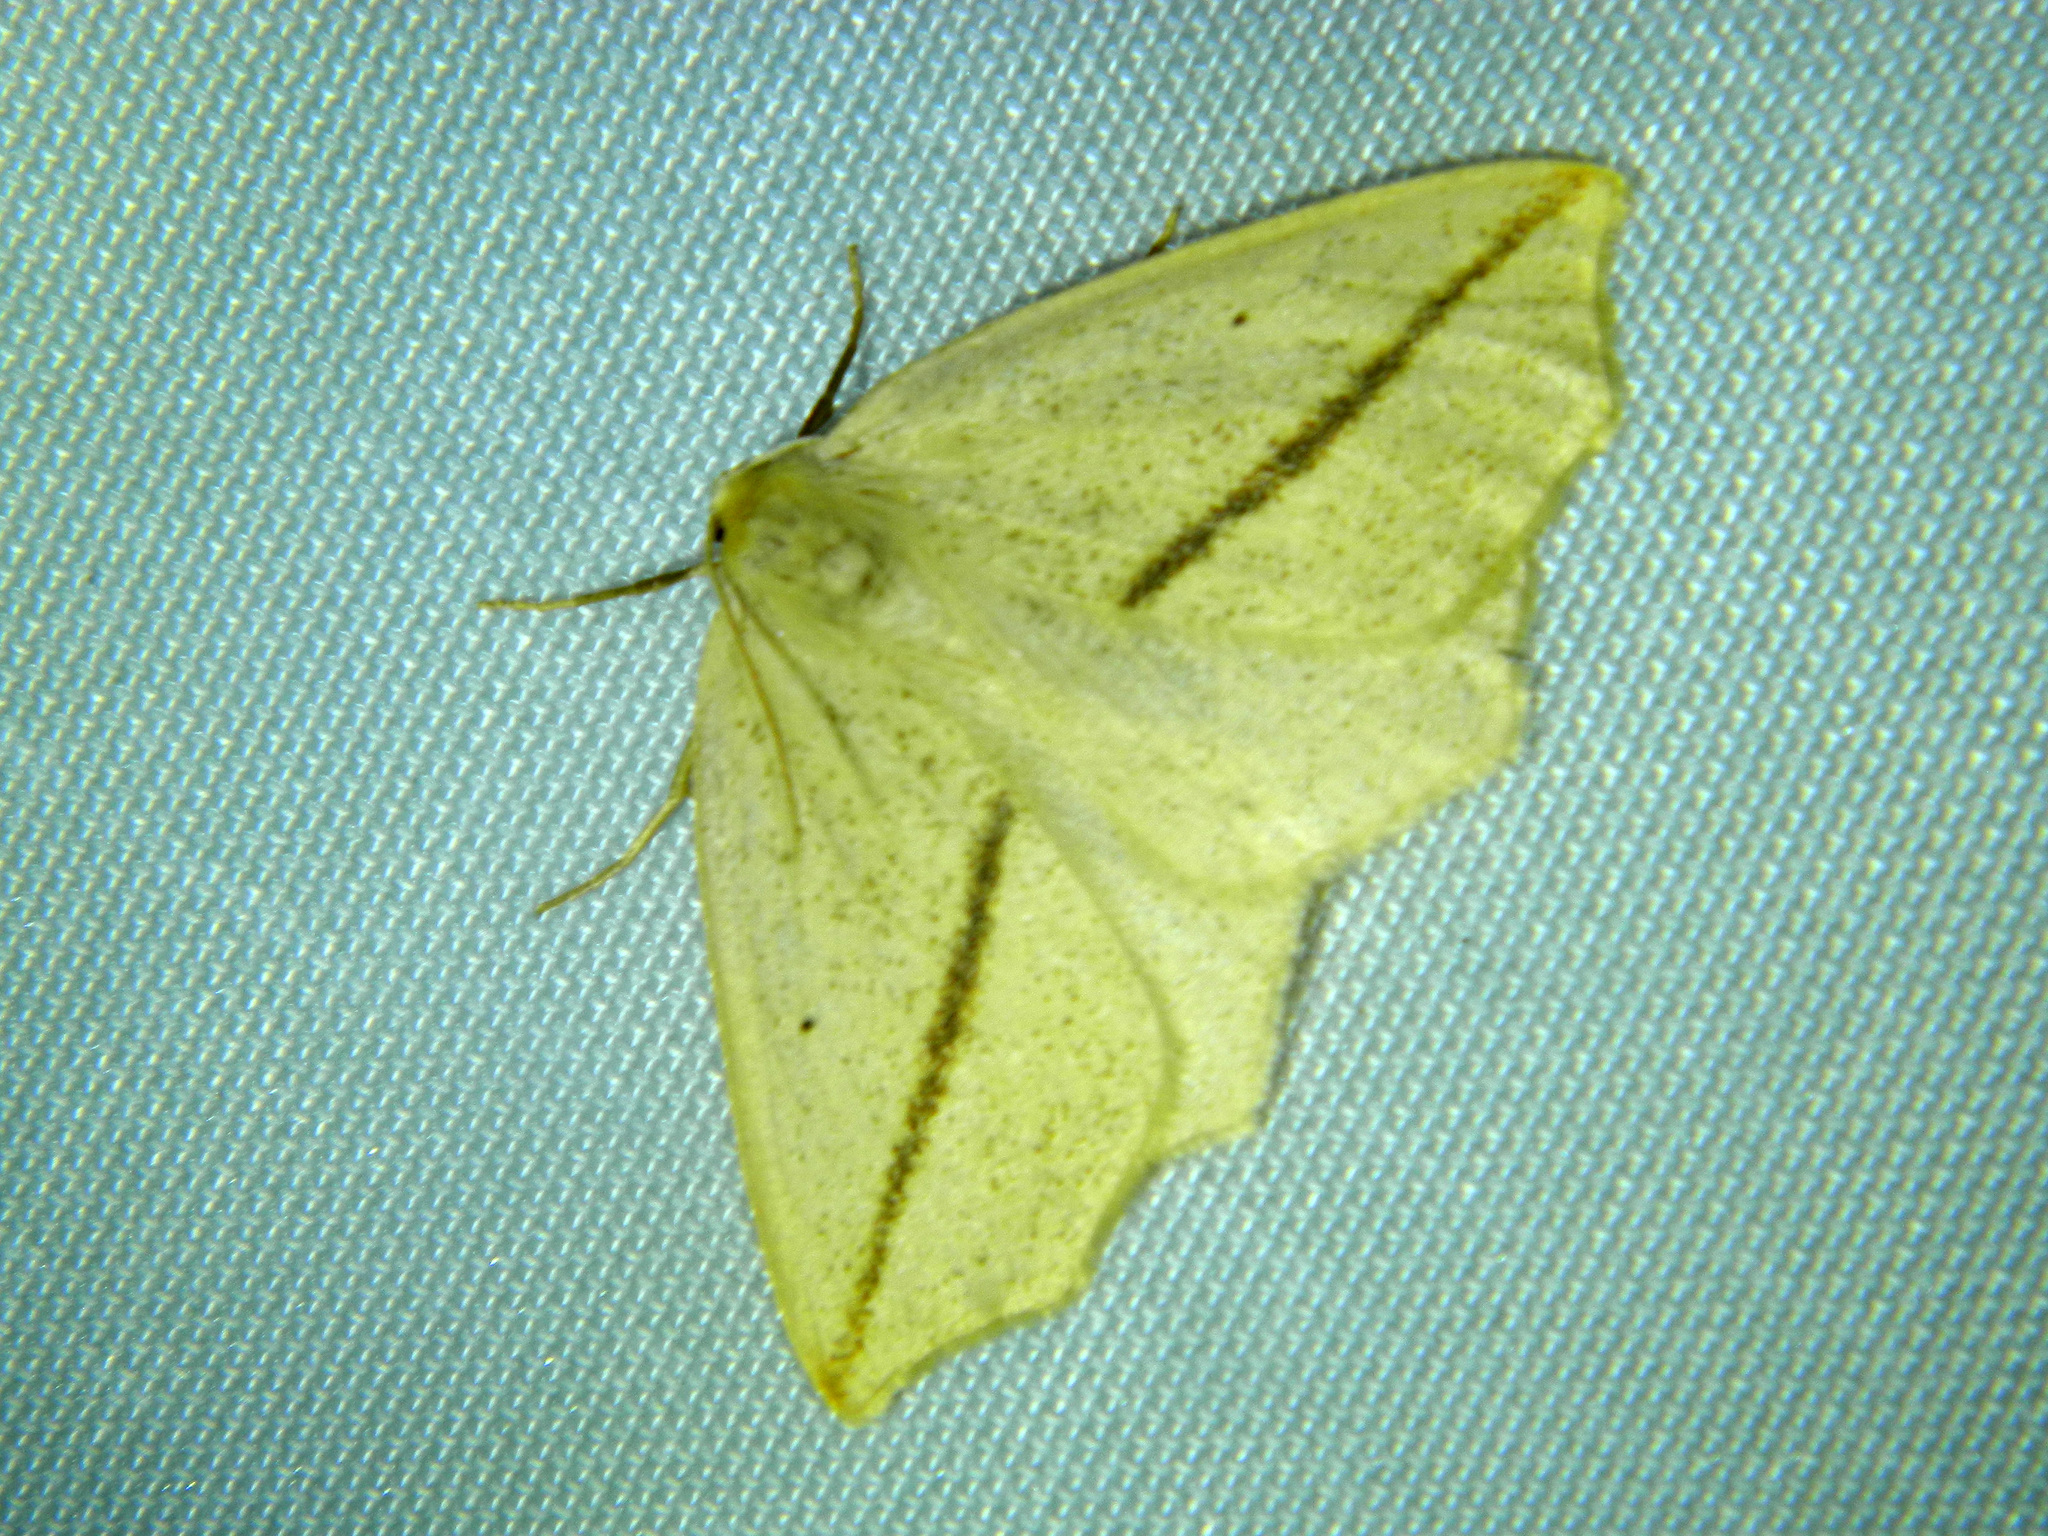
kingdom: Animalia
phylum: Arthropoda
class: Insecta
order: Lepidoptera
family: Geometridae
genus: Tetracis
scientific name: Tetracis crocallata
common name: Yellow slant-line
